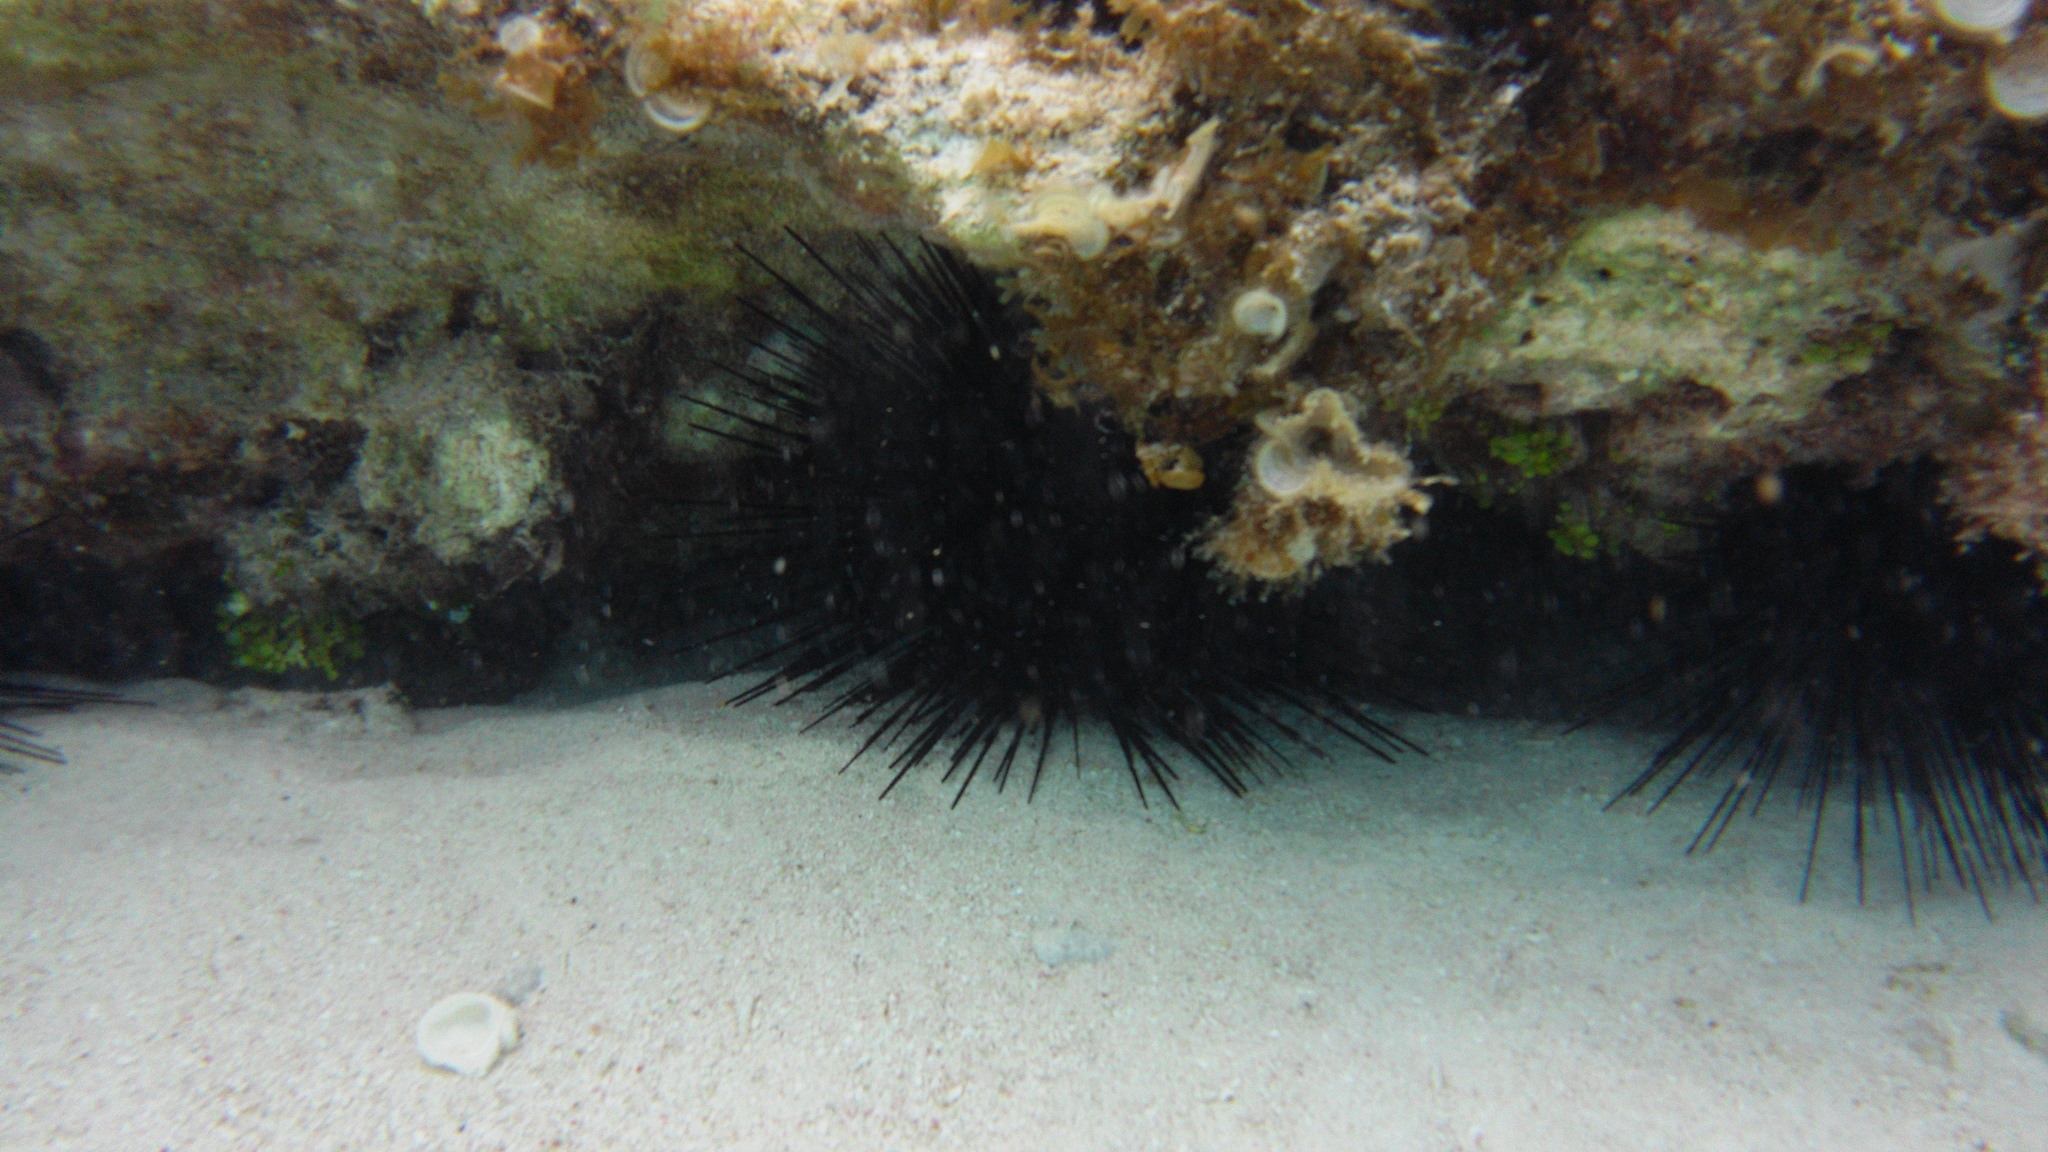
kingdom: Animalia
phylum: Echinodermata
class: Echinoidea
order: Diadematoida
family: Diadematidae
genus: Diadema
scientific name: Diadema antillarum
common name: Spiny urchin
